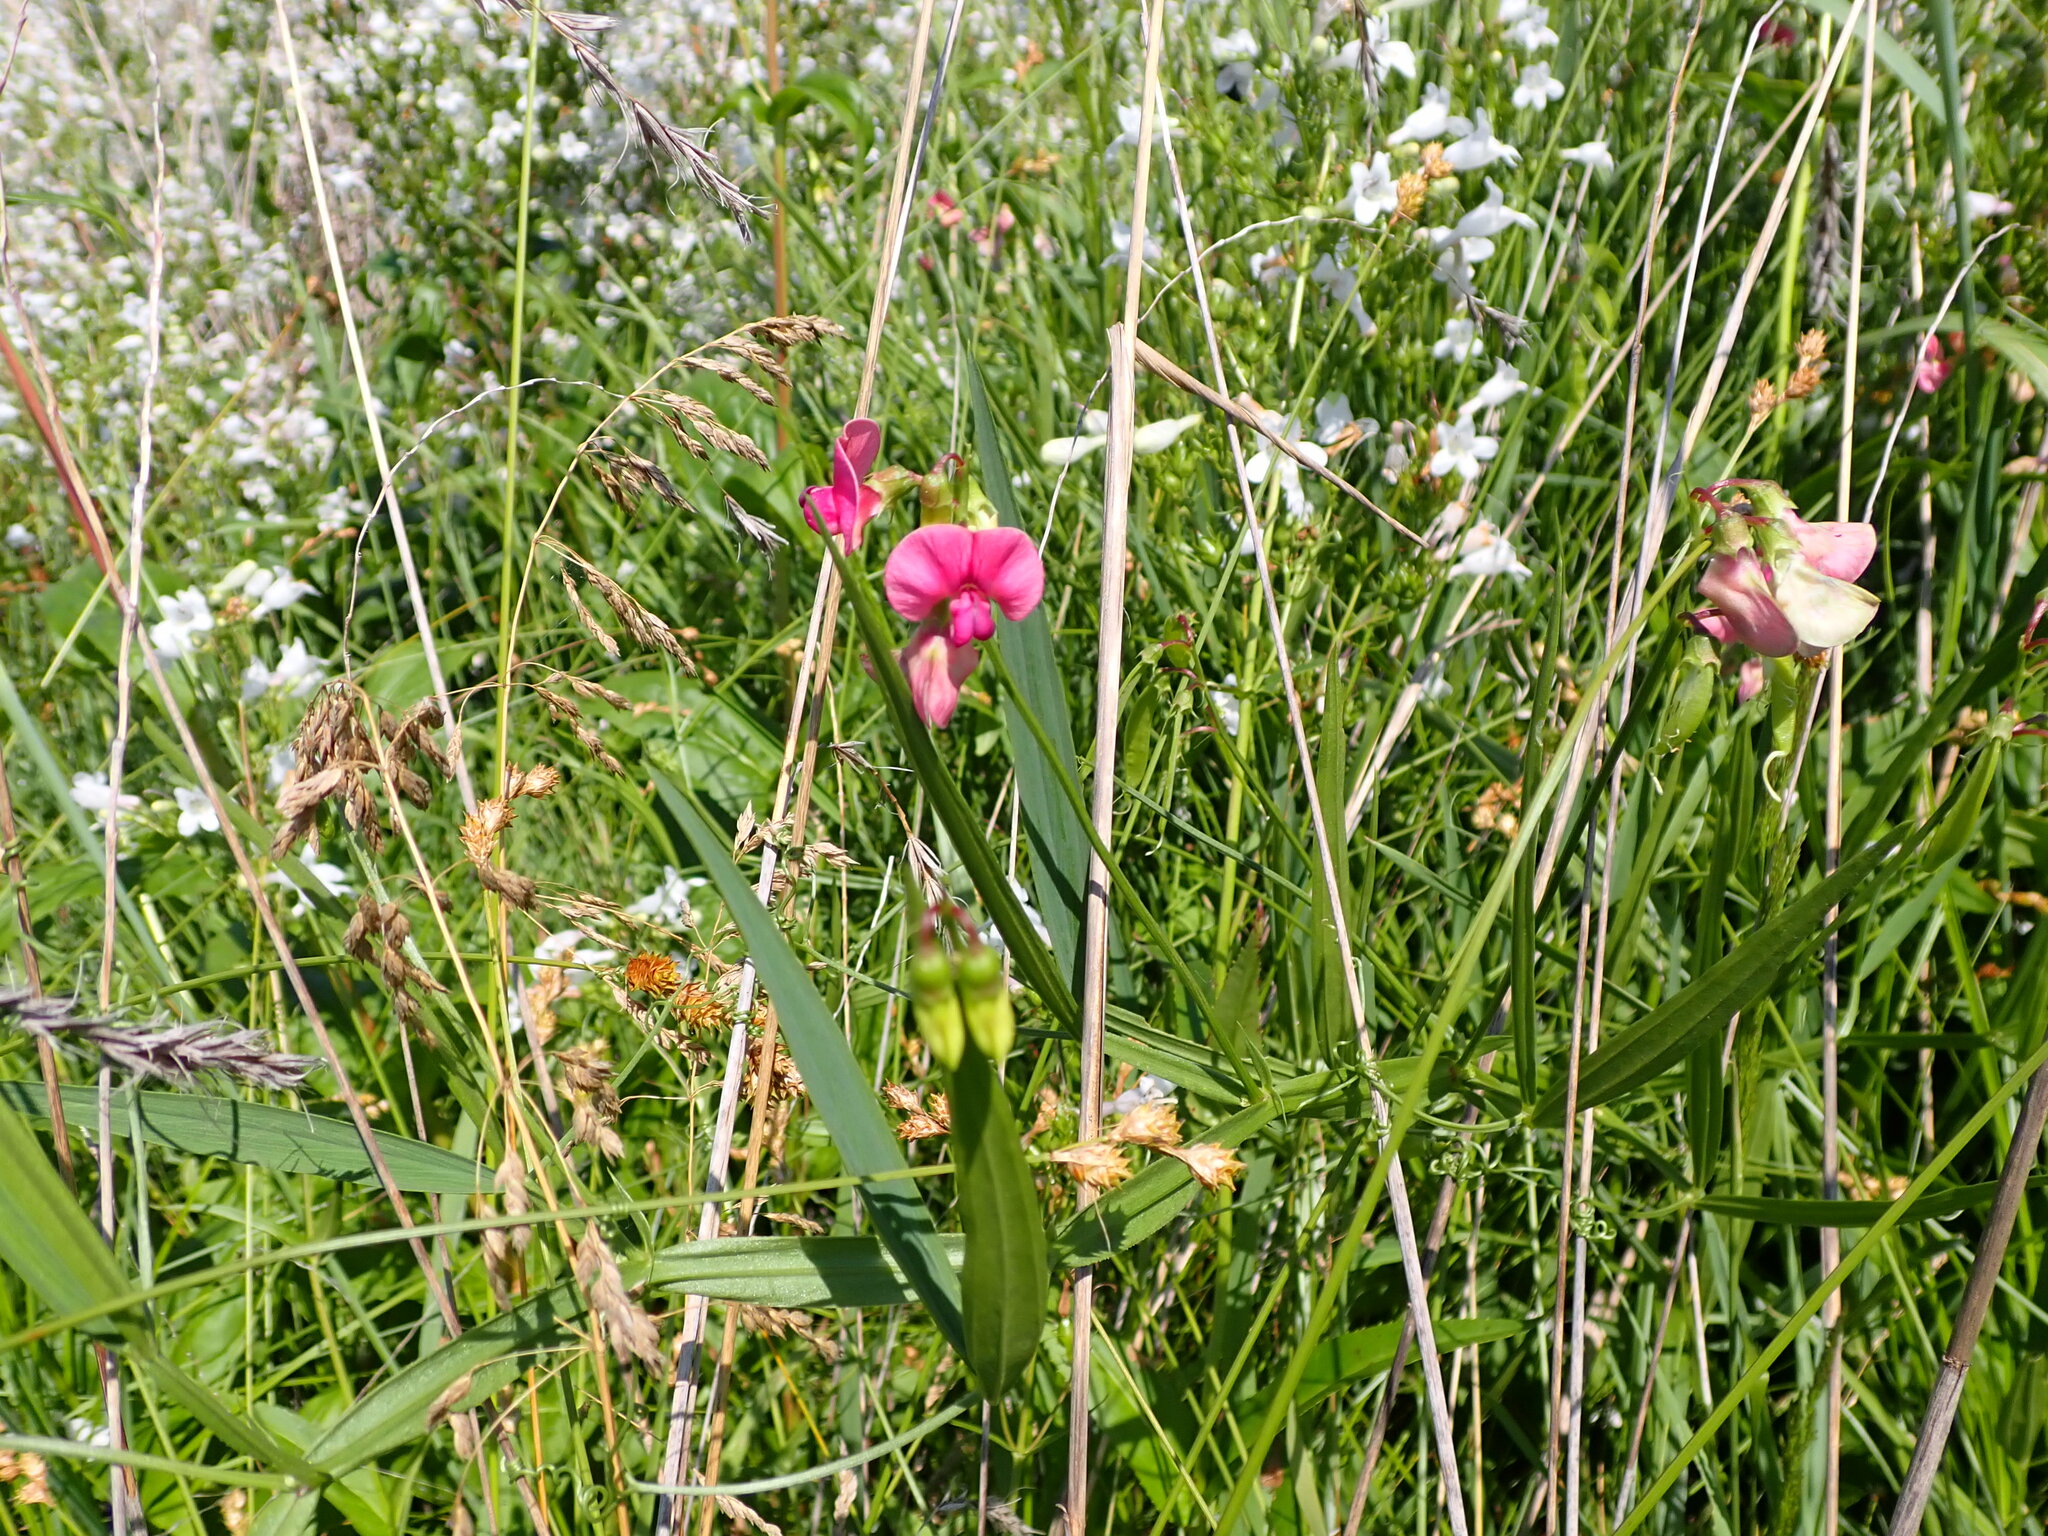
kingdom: Plantae
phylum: Tracheophyta
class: Magnoliopsida
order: Fabales
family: Fabaceae
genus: Lathyrus
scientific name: Lathyrus sylvestris
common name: Flat pea
